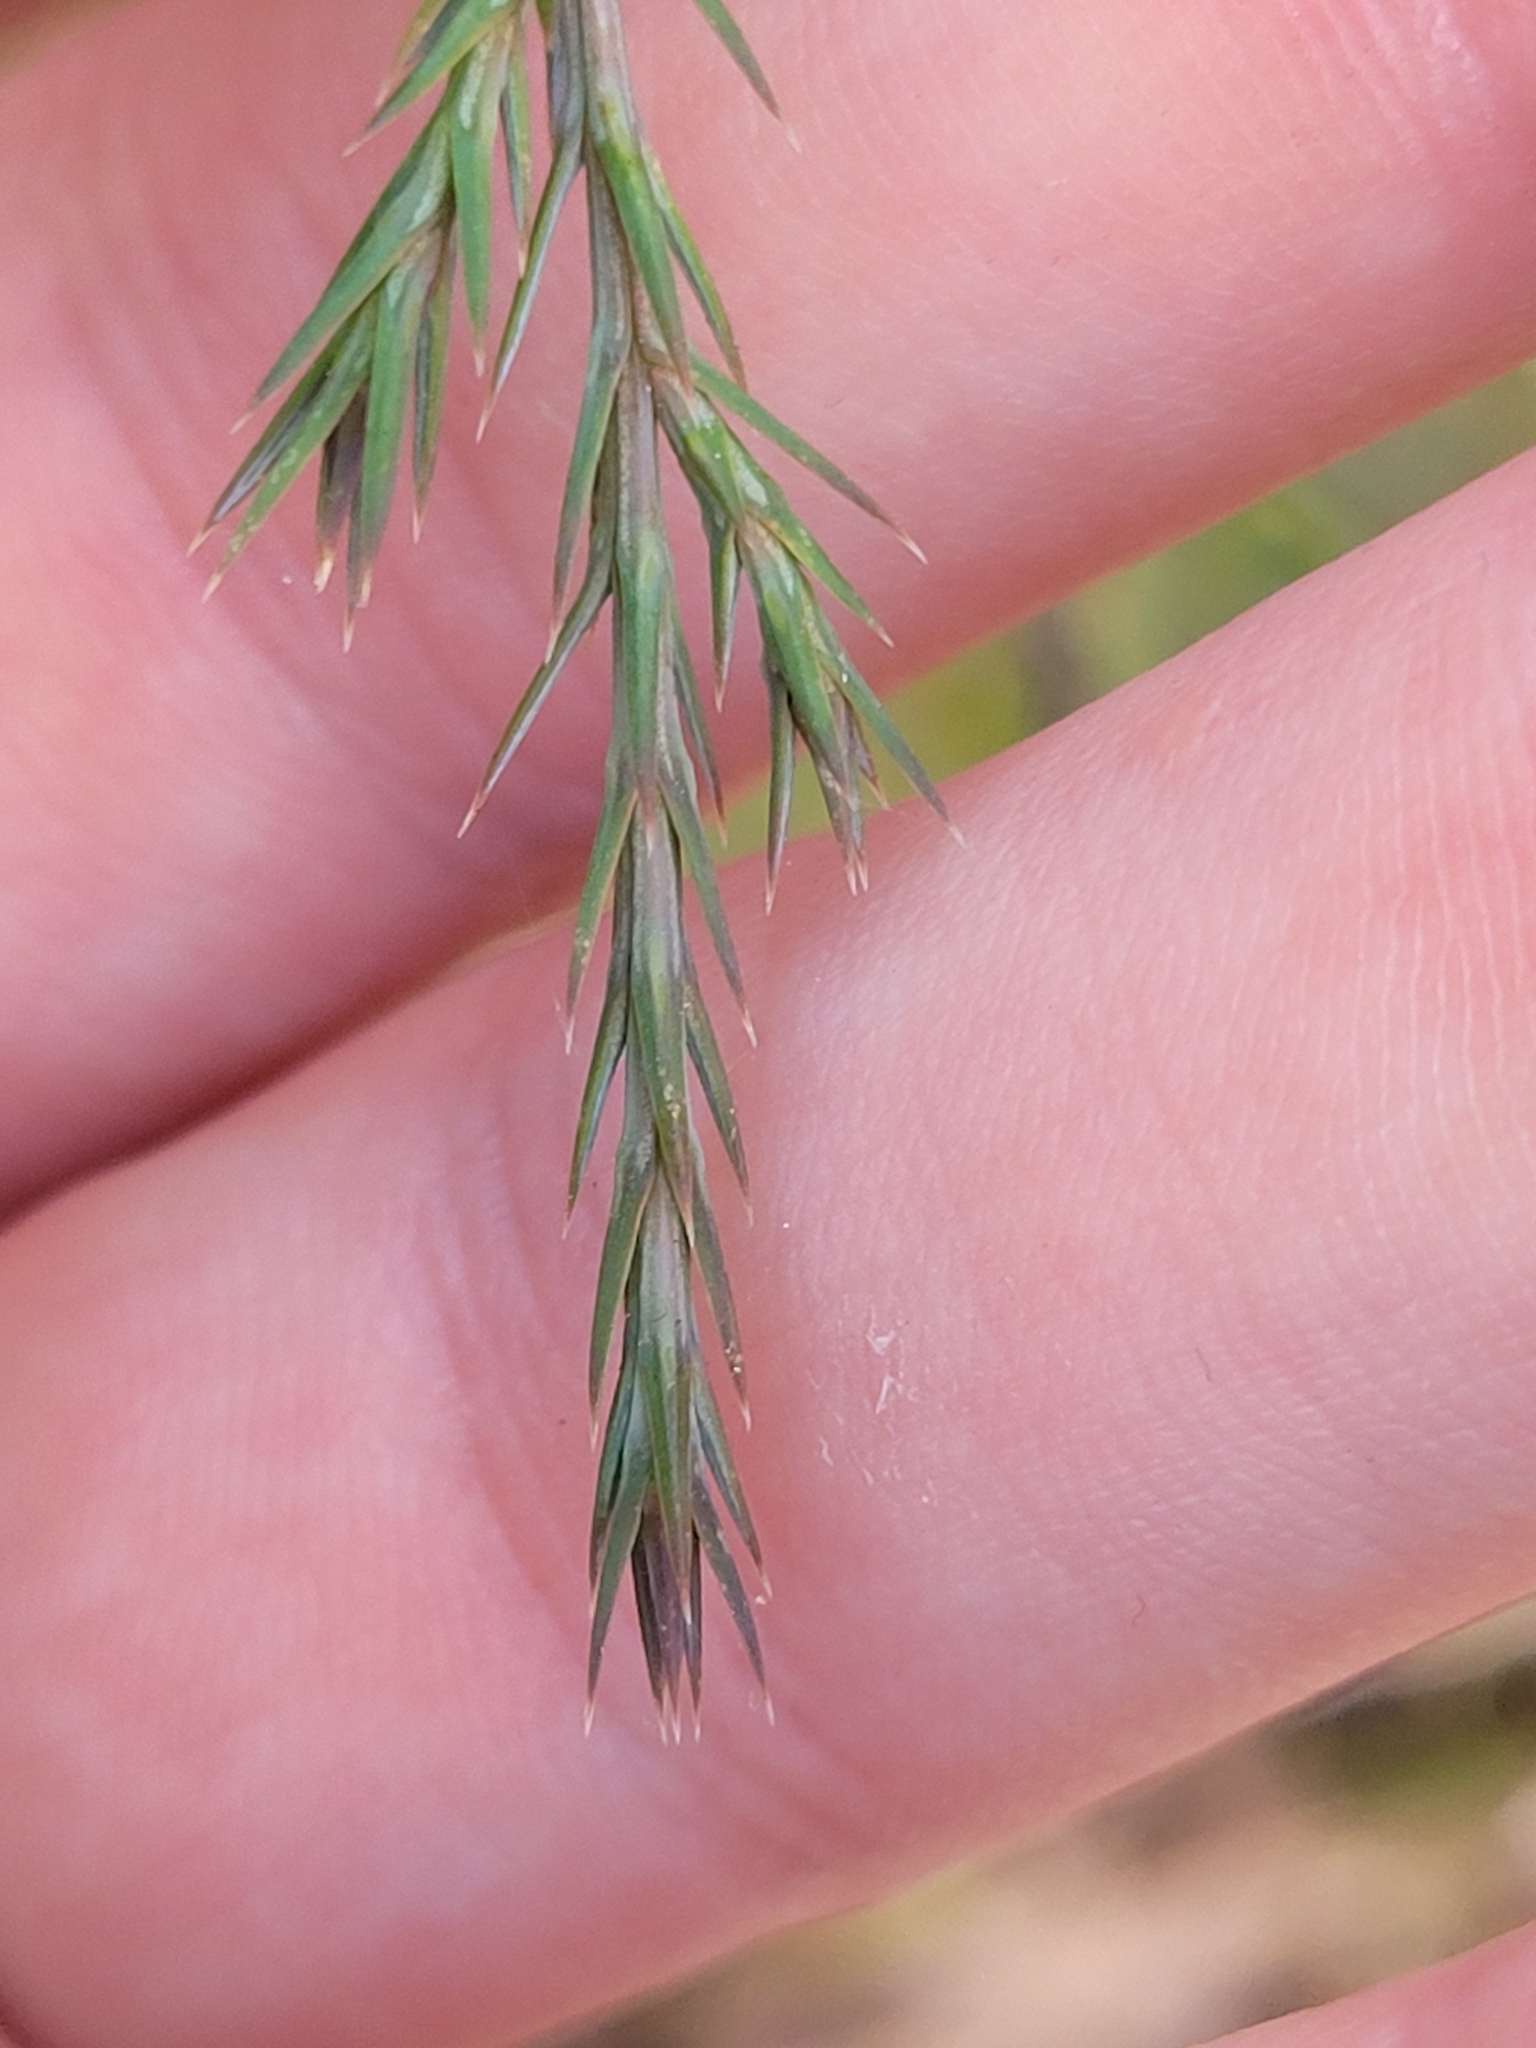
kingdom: Plantae
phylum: Tracheophyta
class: Pinopsida
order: Pinales
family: Cupressaceae
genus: Juniperus
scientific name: Juniperus virginiana
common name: Red juniper
